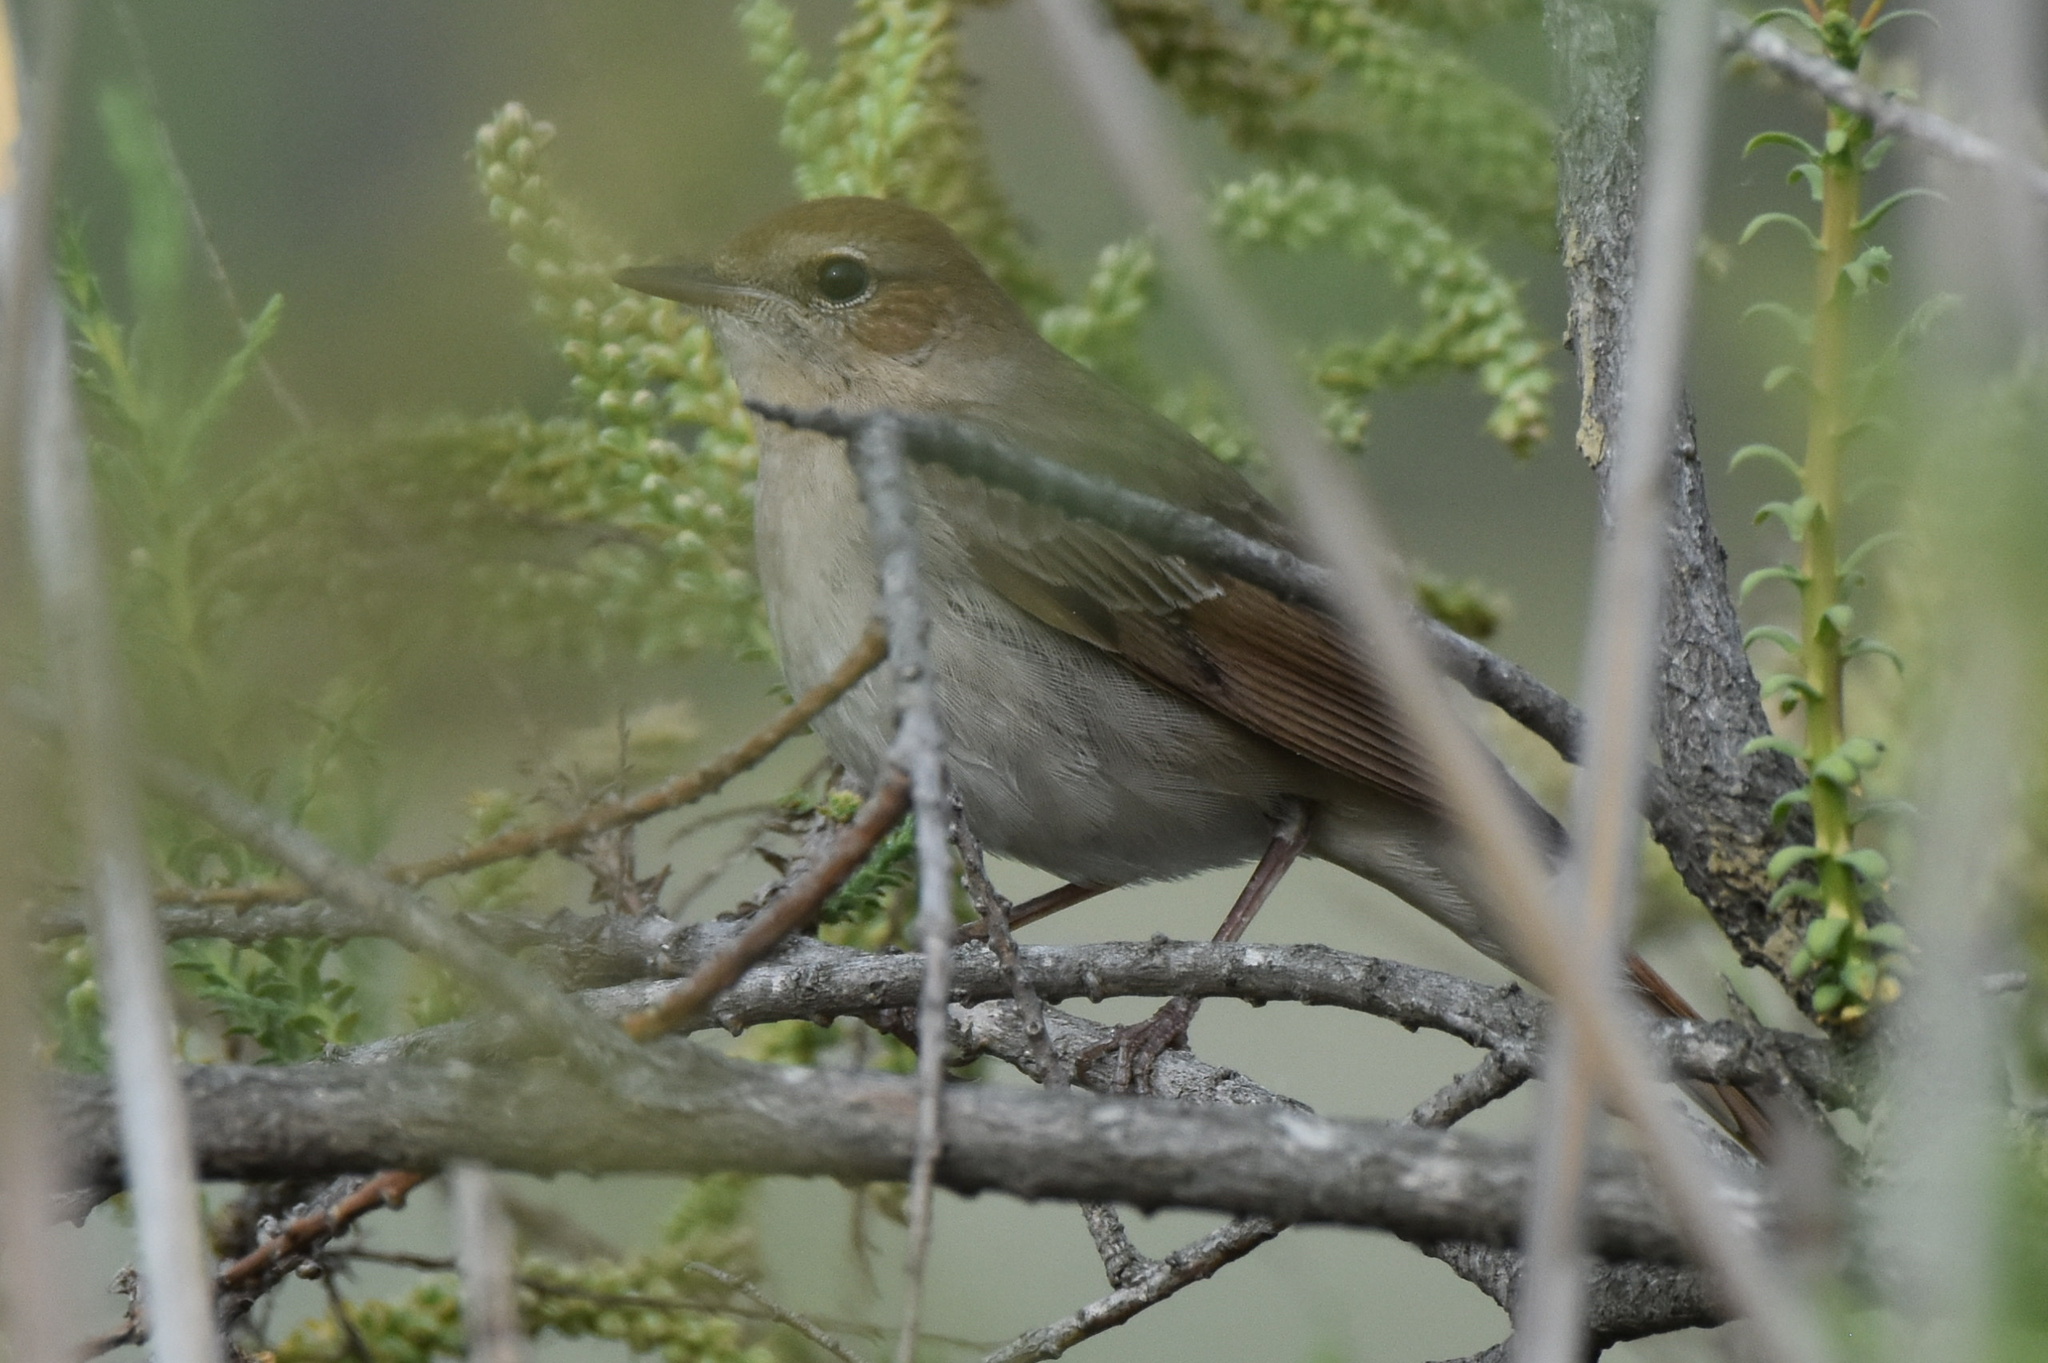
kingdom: Animalia
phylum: Chordata
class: Aves
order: Passeriformes
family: Muscicapidae
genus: Luscinia
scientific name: Luscinia megarhynchos
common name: Common nightingale
